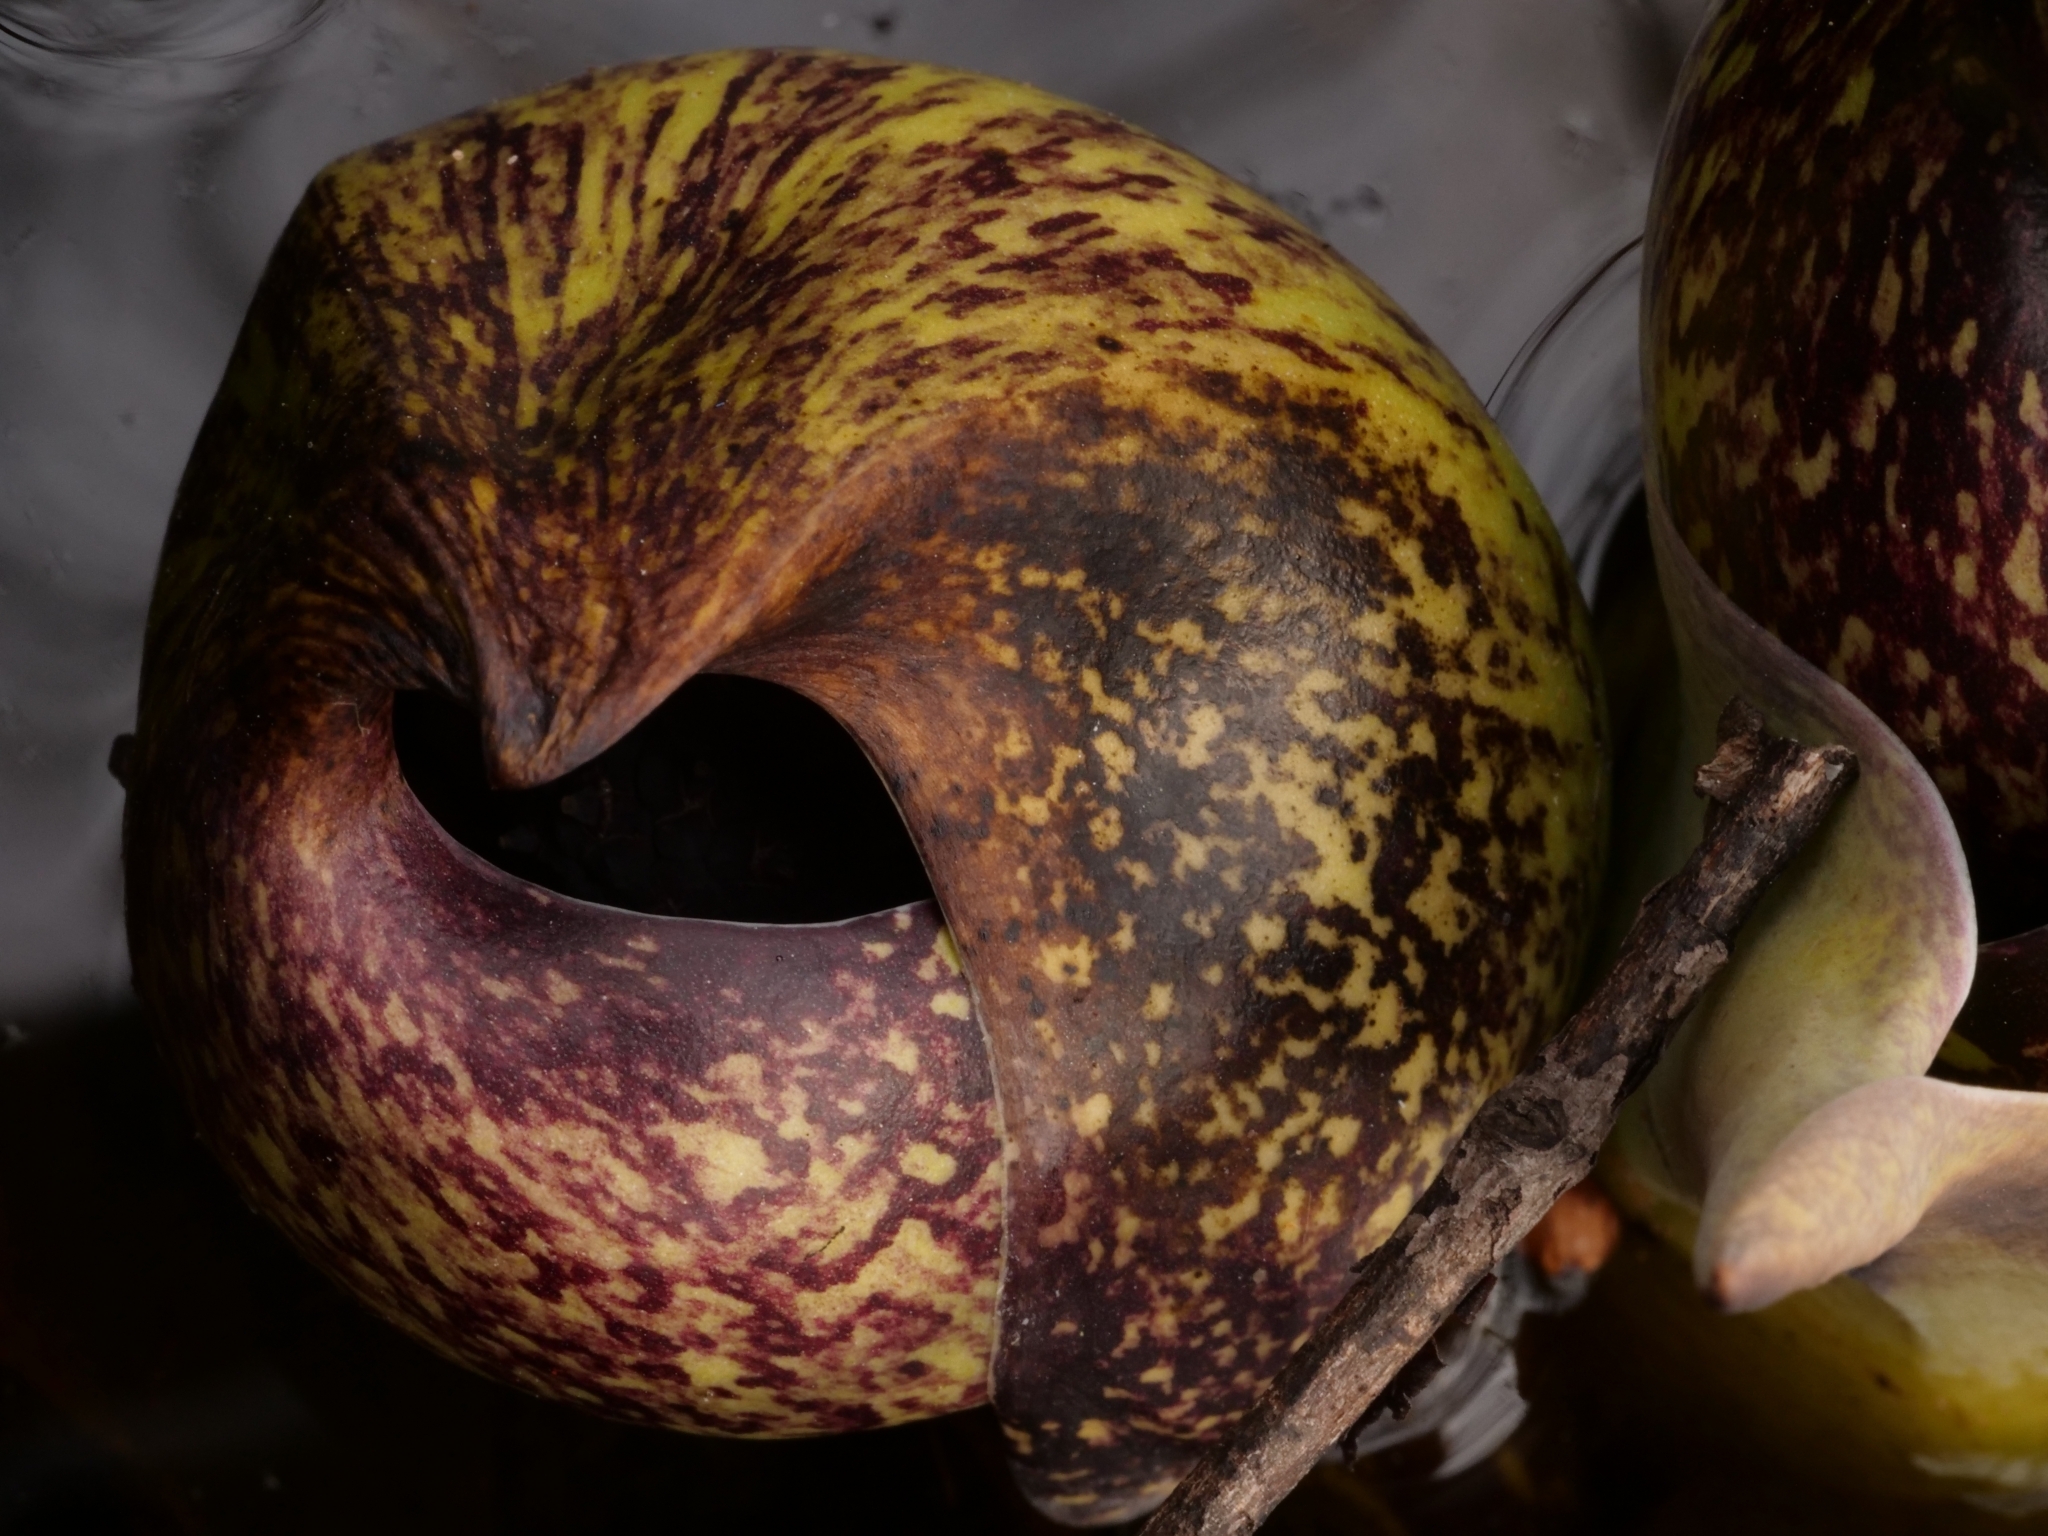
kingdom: Plantae
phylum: Tracheophyta
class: Liliopsida
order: Alismatales
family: Araceae
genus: Symplocarpus
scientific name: Symplocarpus foetidus
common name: Eastern skunk cabbage
